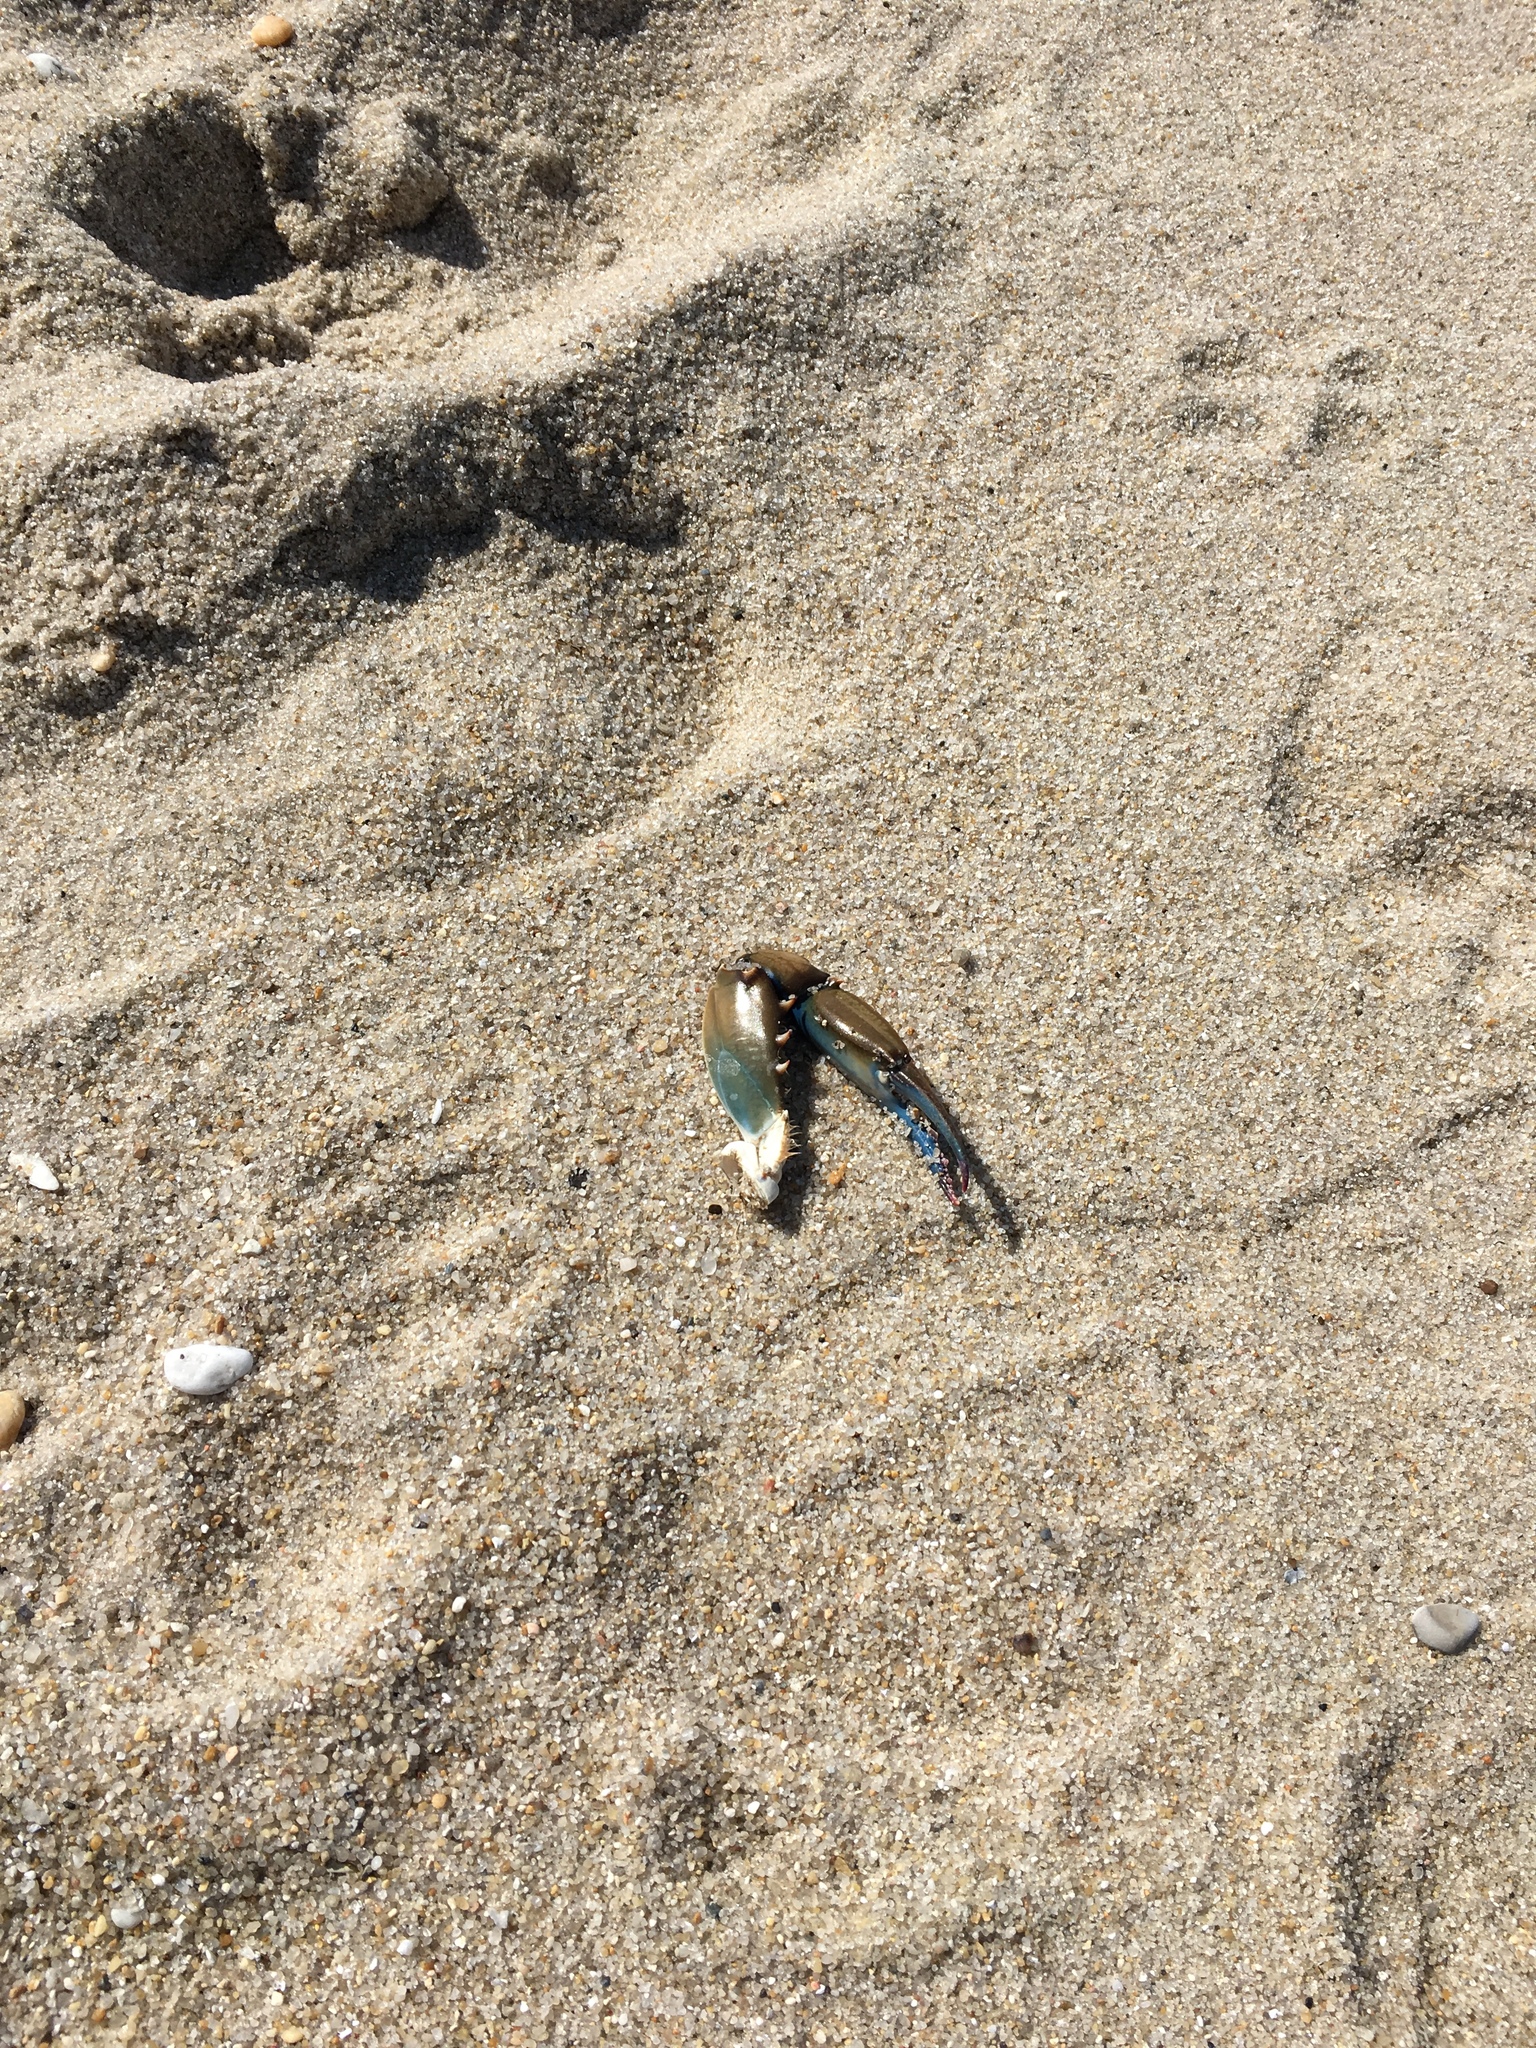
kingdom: Animalia
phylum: Arthropoda
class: Malacostraca
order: Decapoda
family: Portunidae
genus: Callinectes
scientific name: Callinectes sapidus
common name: Blue crab
